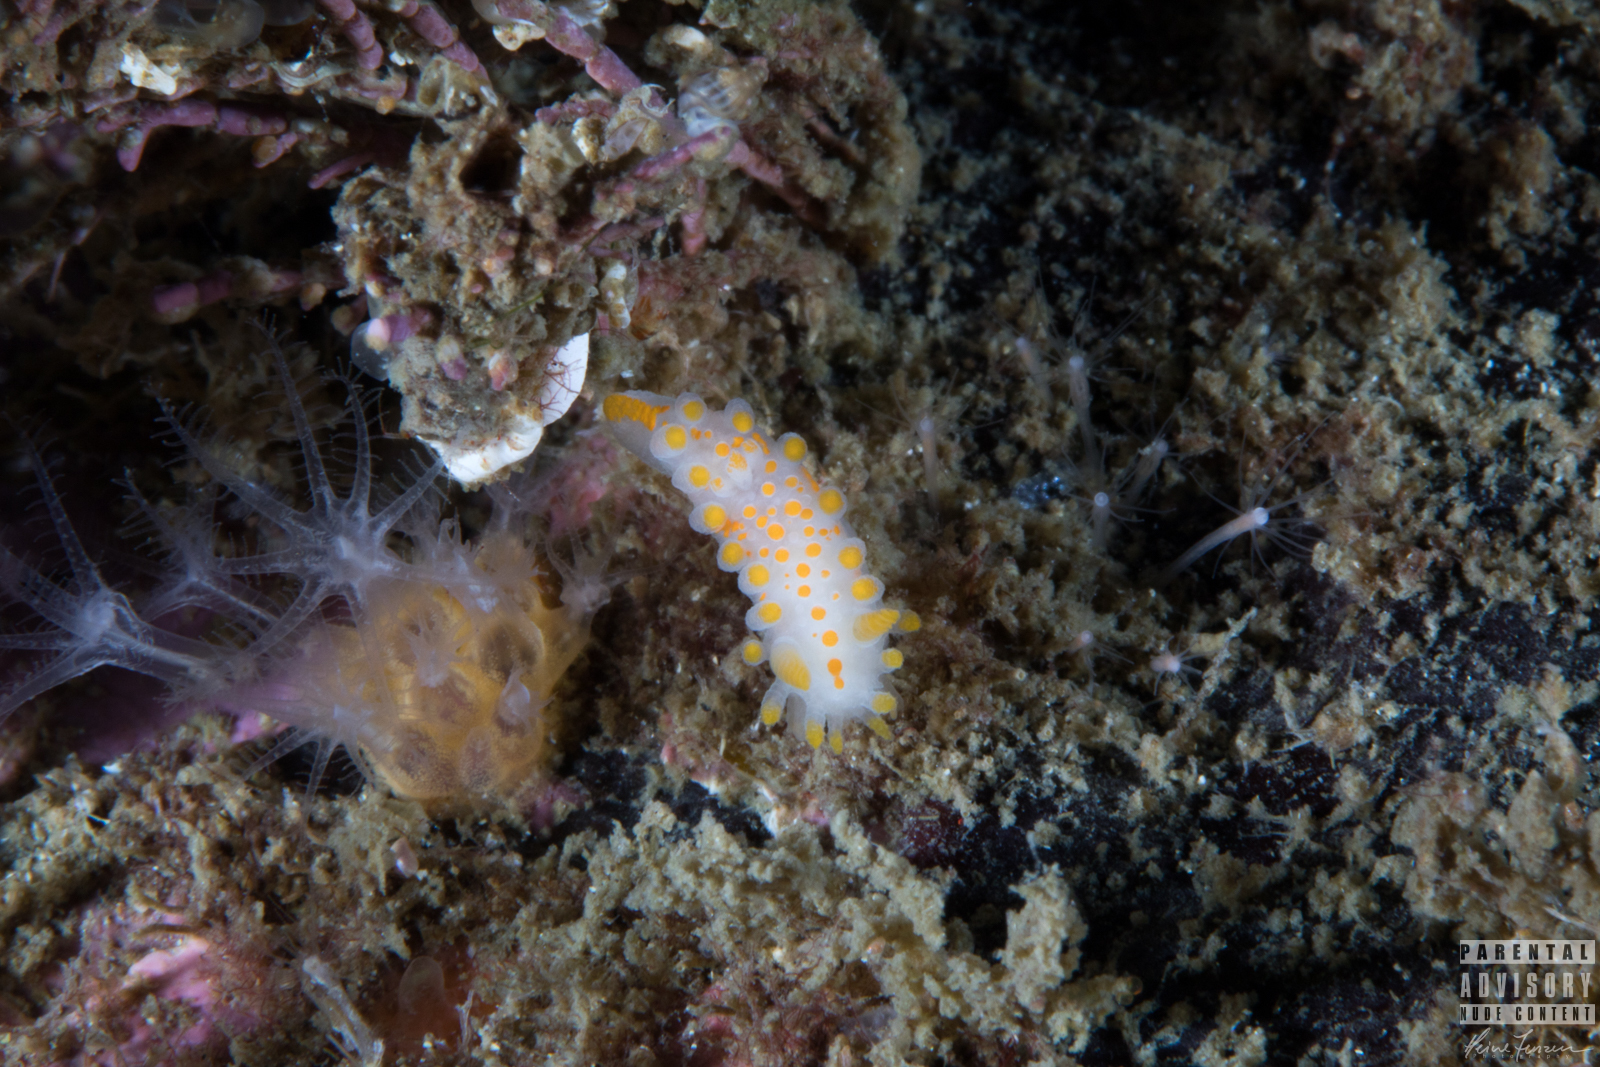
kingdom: Animalia
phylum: Mollusca
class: Gastropoda
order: Nudibranchia
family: Polyceridae
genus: Limacia
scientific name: Limacia clavigera
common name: Orange-clubbed sea slug
